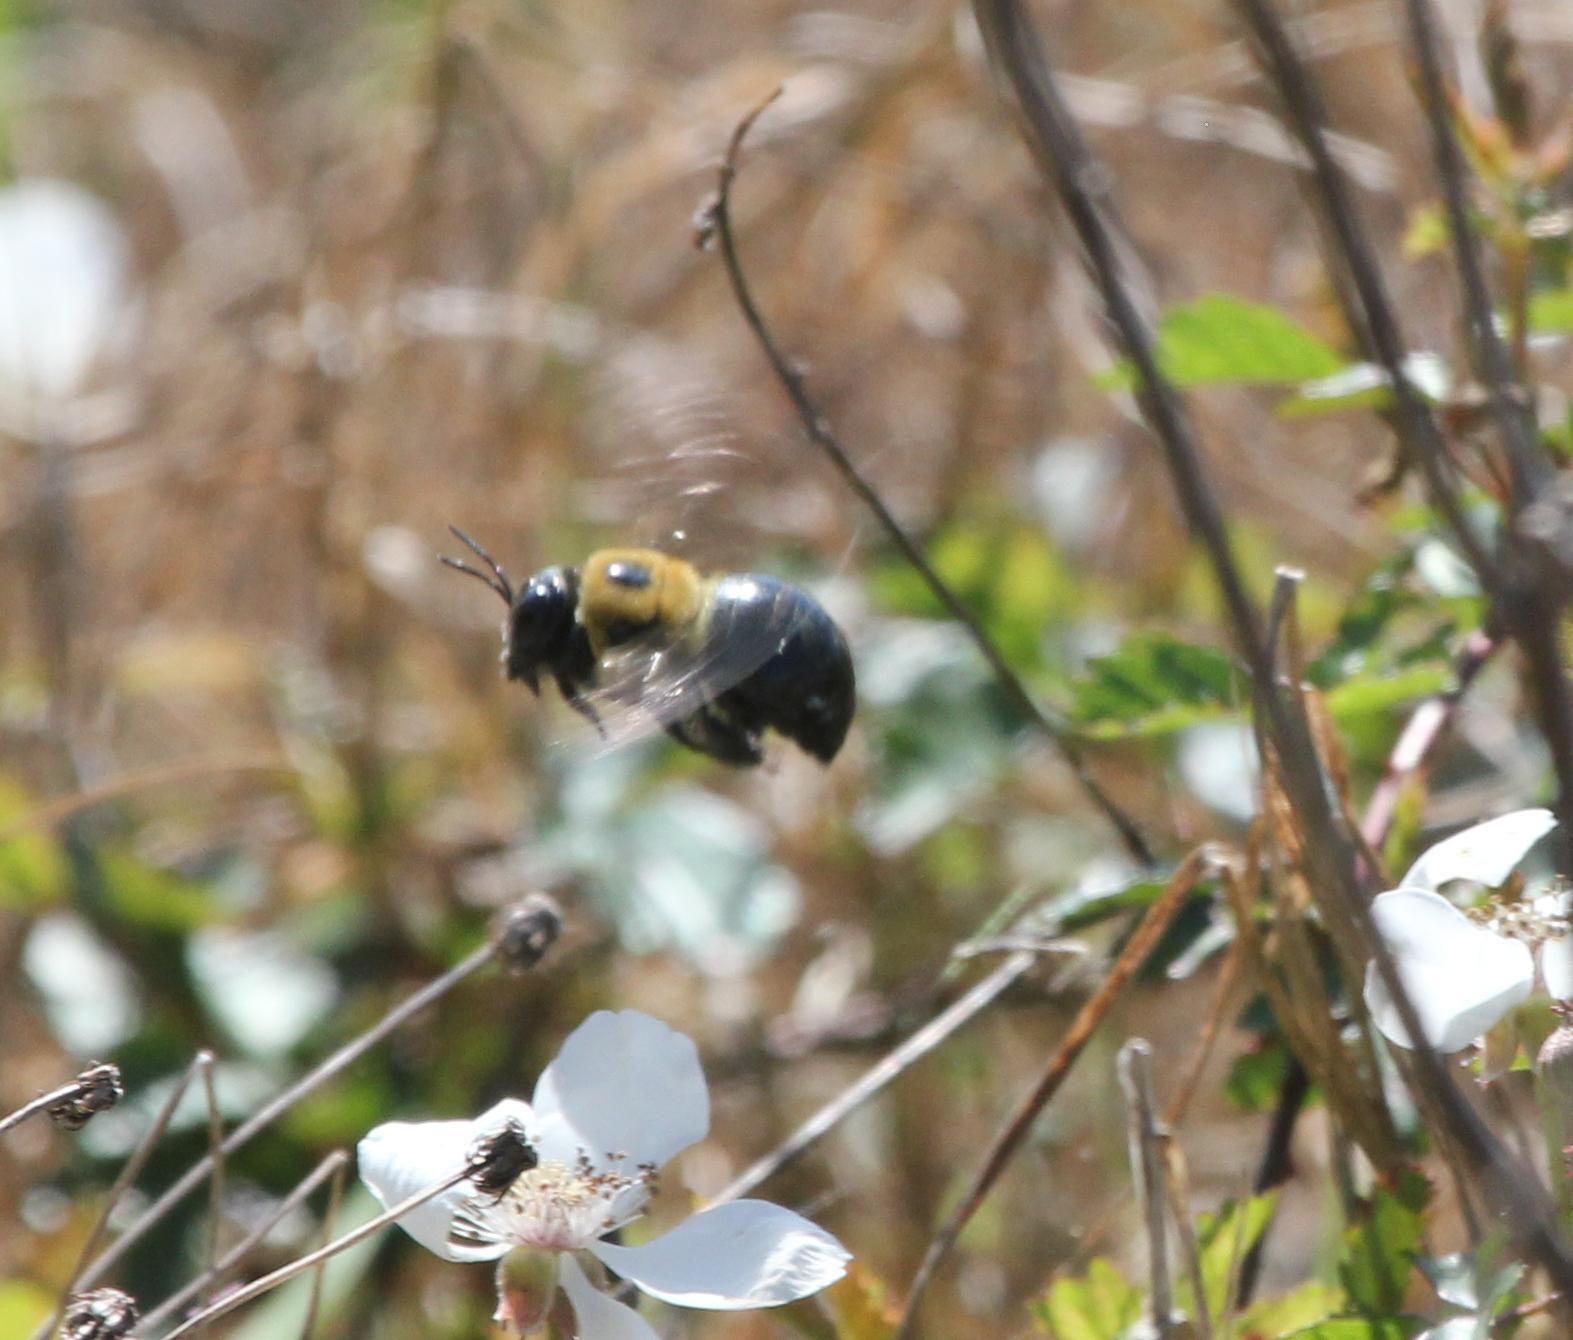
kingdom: Animalia
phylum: Arthropoda
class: Insecta
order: Hymenoptera
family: Apidae
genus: Xylocopa
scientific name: Xylocopa virginica
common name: Carpenter bee
